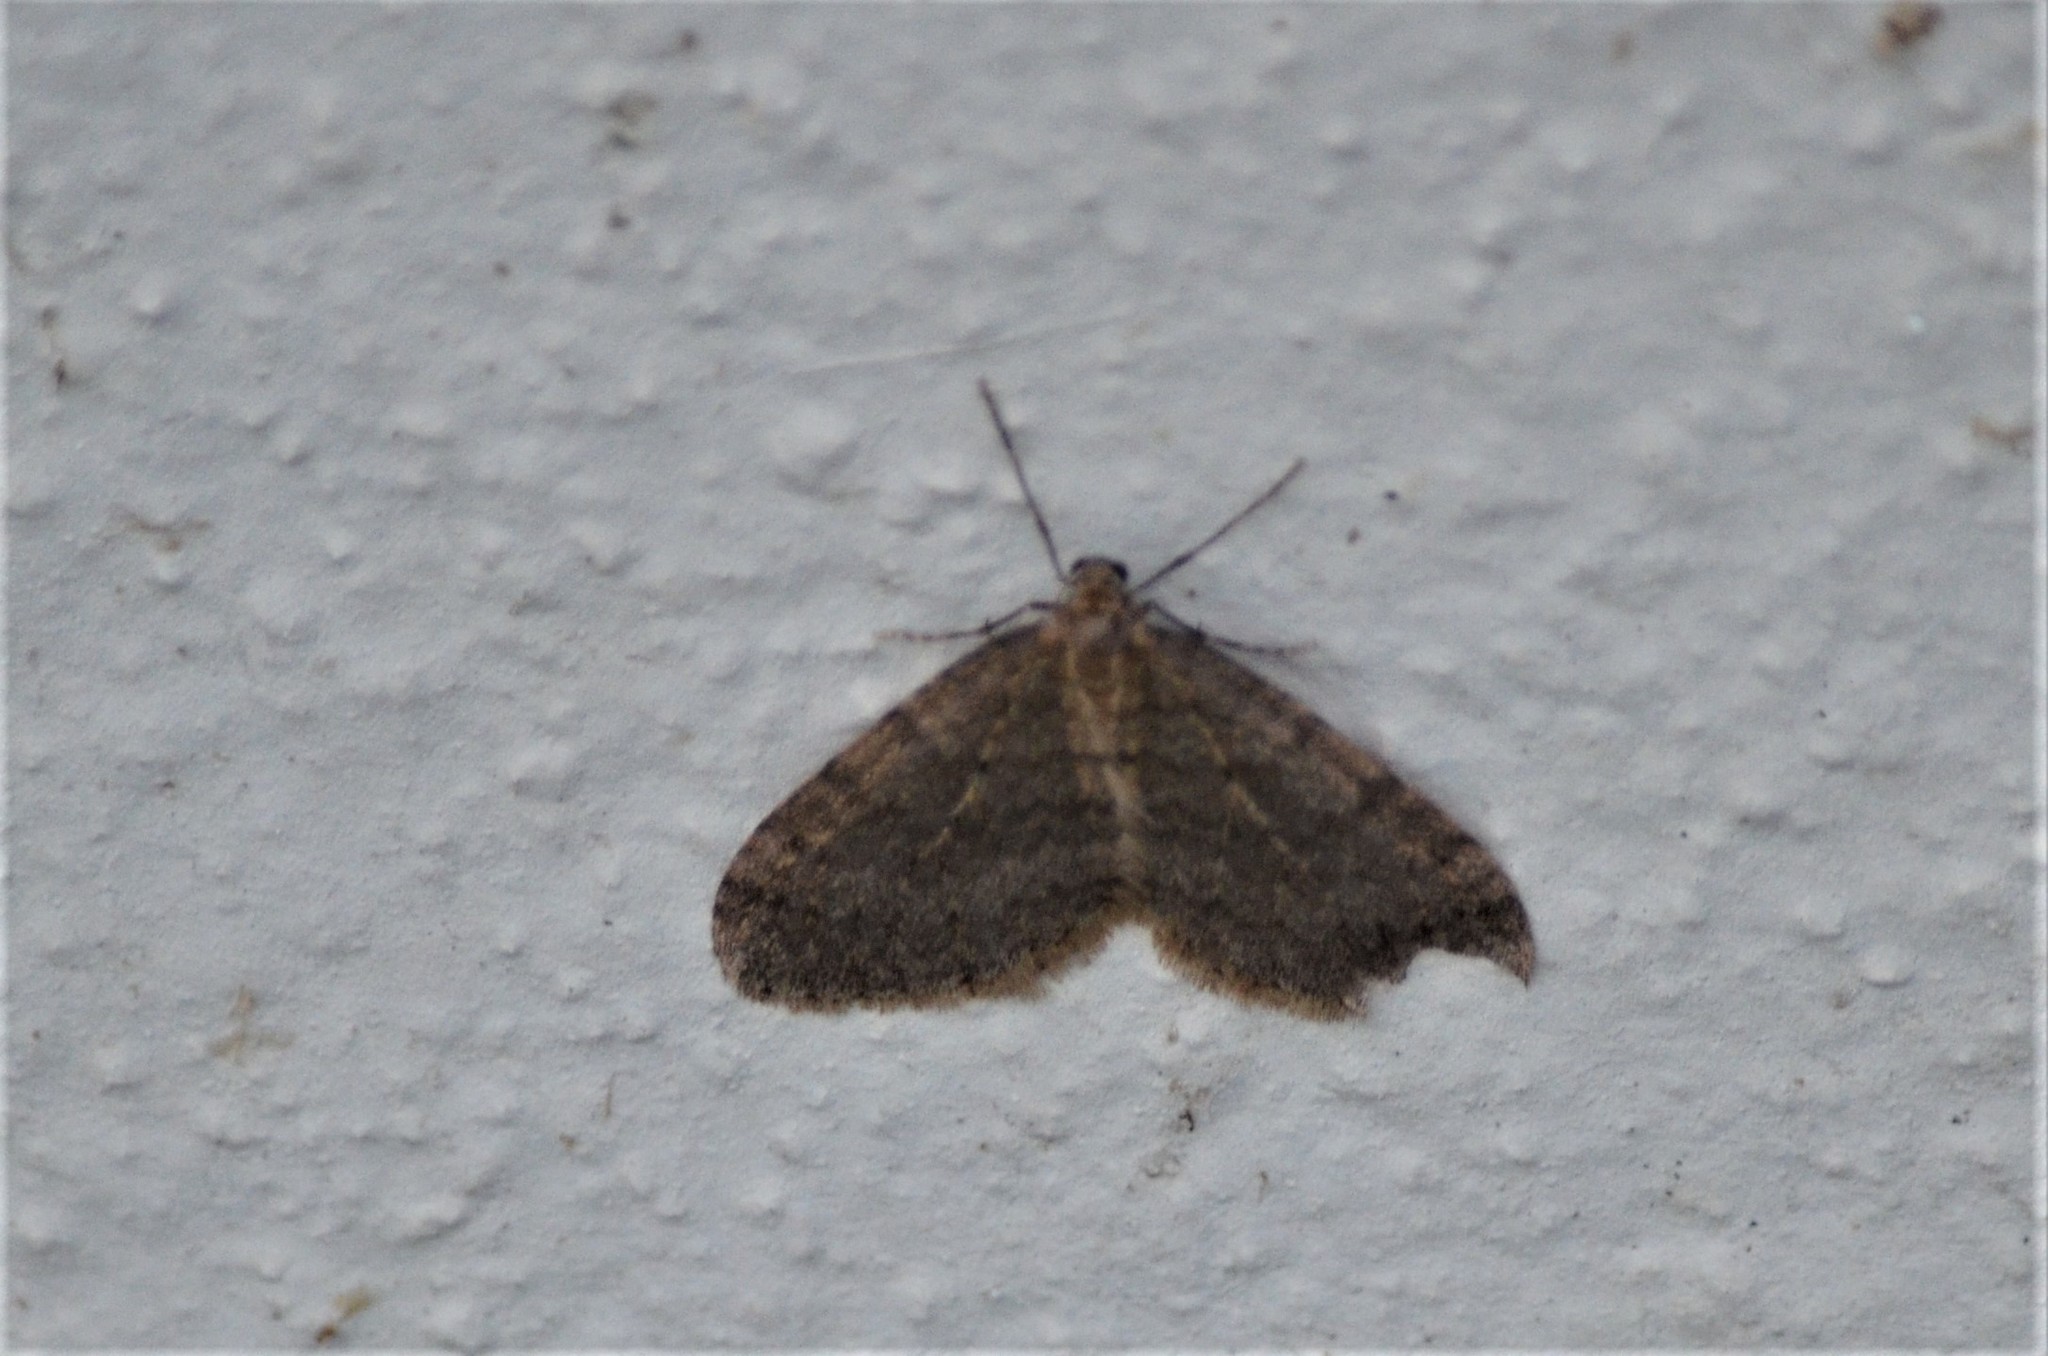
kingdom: Animalia
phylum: Arthropoda
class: Insecta
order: Lepidoptera
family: Geometridae
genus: Operophtera
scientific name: Operophtera brumata
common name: Winter moth
